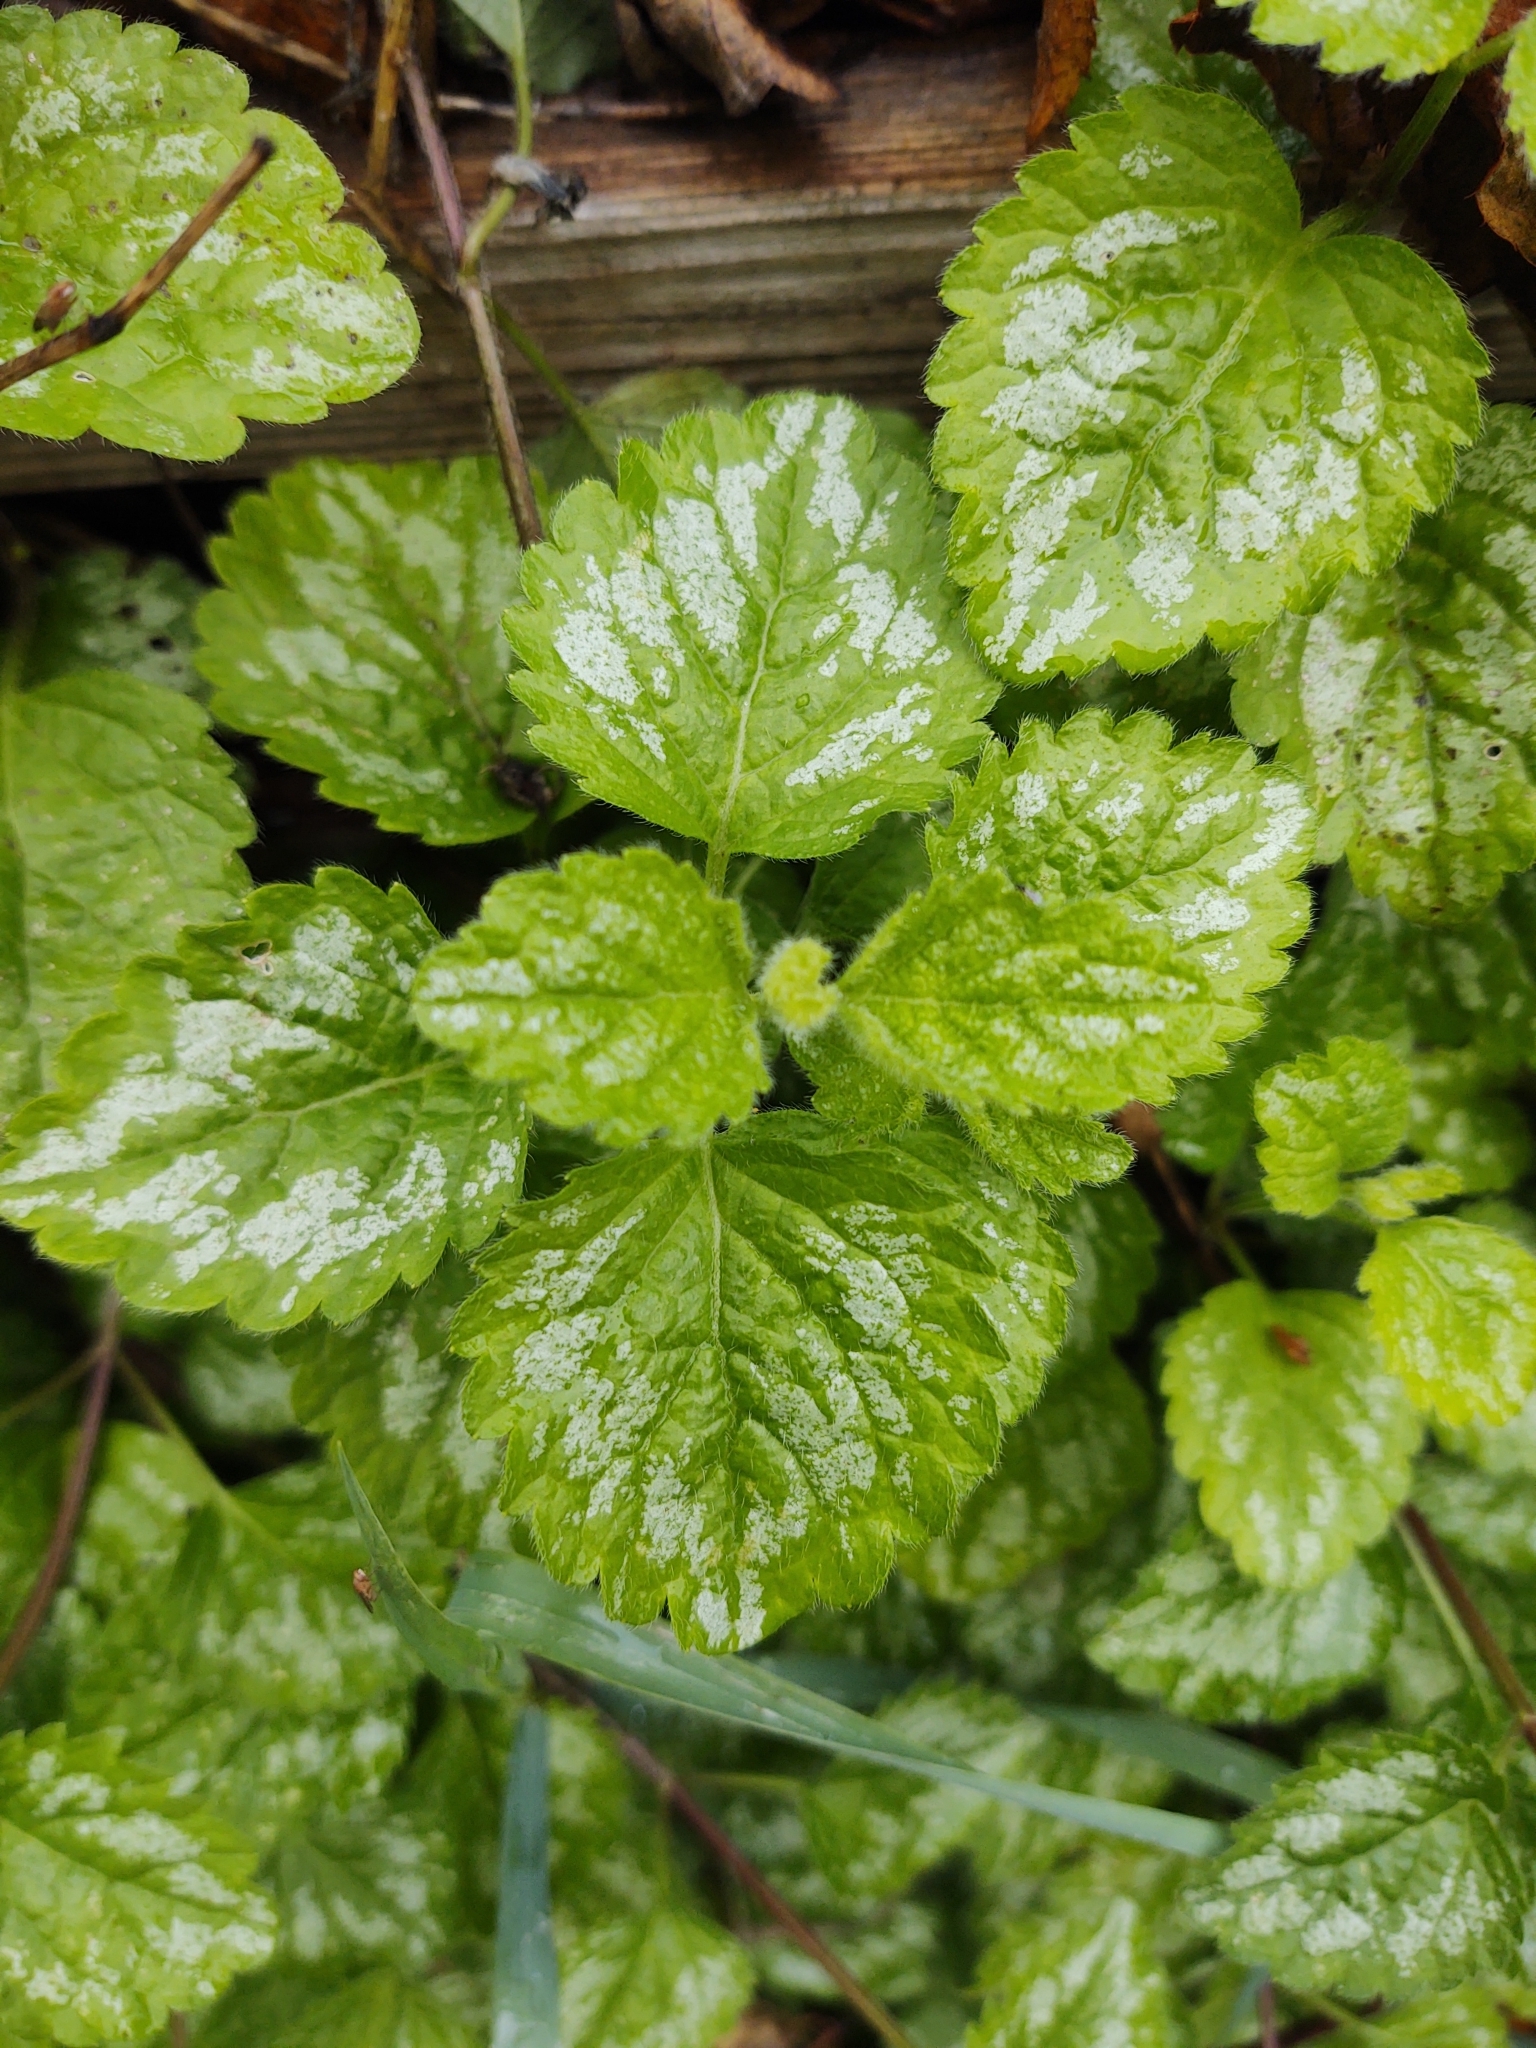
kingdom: Plantae
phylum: Tracheophyta
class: Magnoliopsida
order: Lamiales
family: Lamiaceae
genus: Lamium
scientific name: Lamium galeobdolon
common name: Yellow archangel
